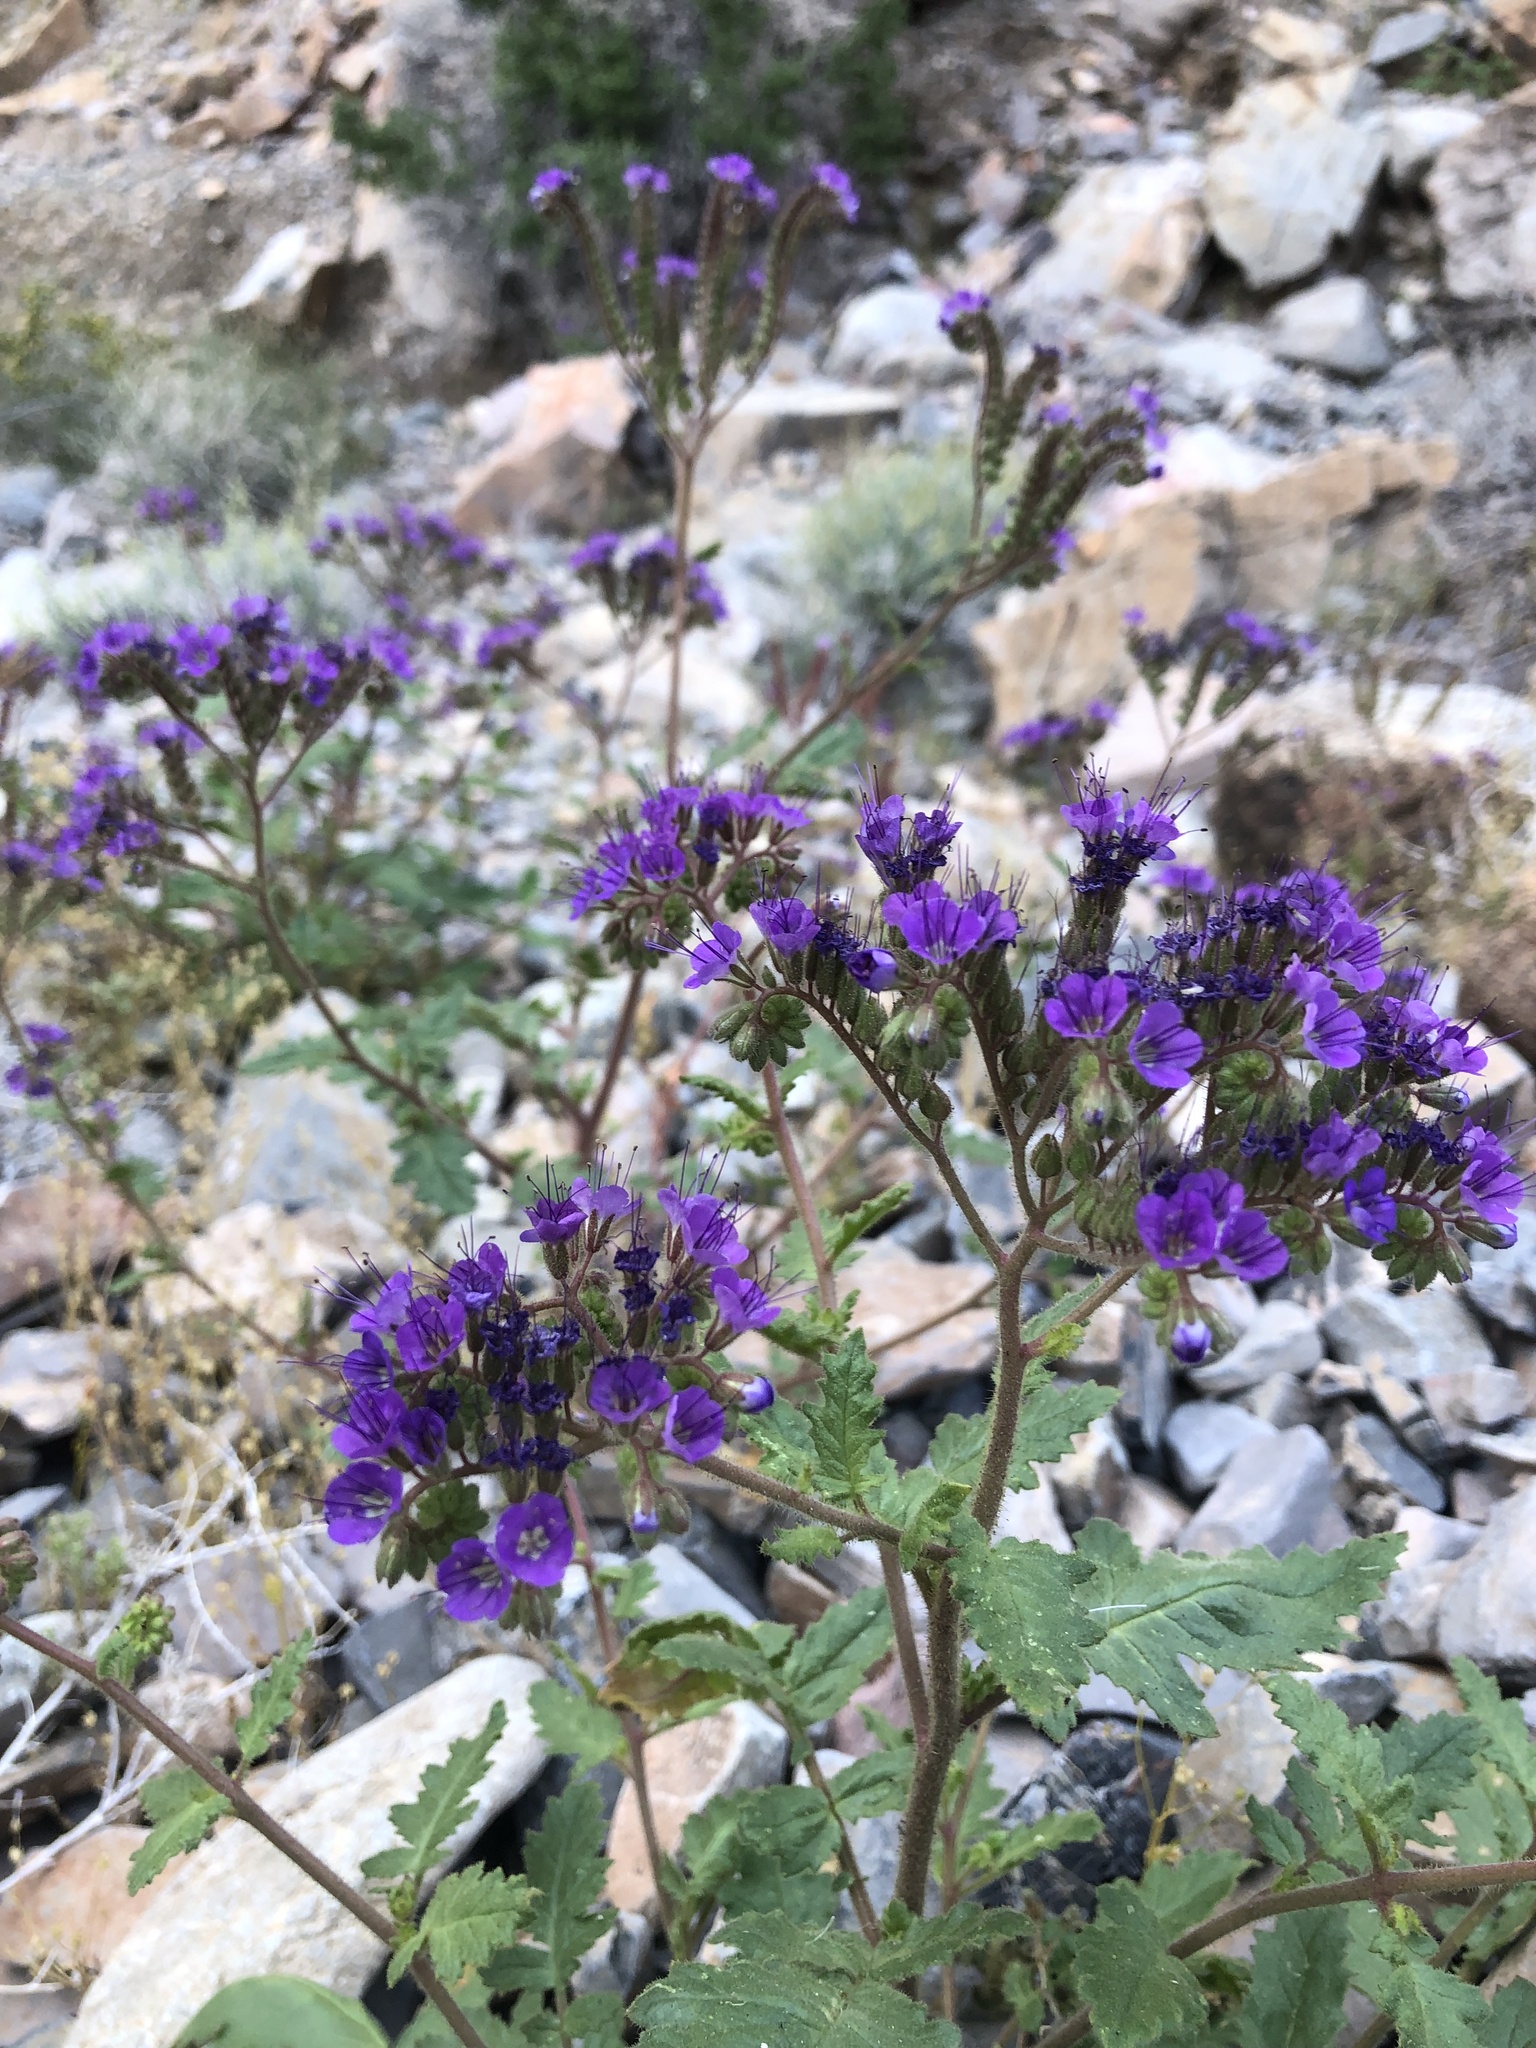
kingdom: Plantae
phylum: Tracheophyta
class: Magnoliopsida
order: Boraginales
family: Hydrophyllaceae
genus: Phacelia
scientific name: Phacelia crenulata
